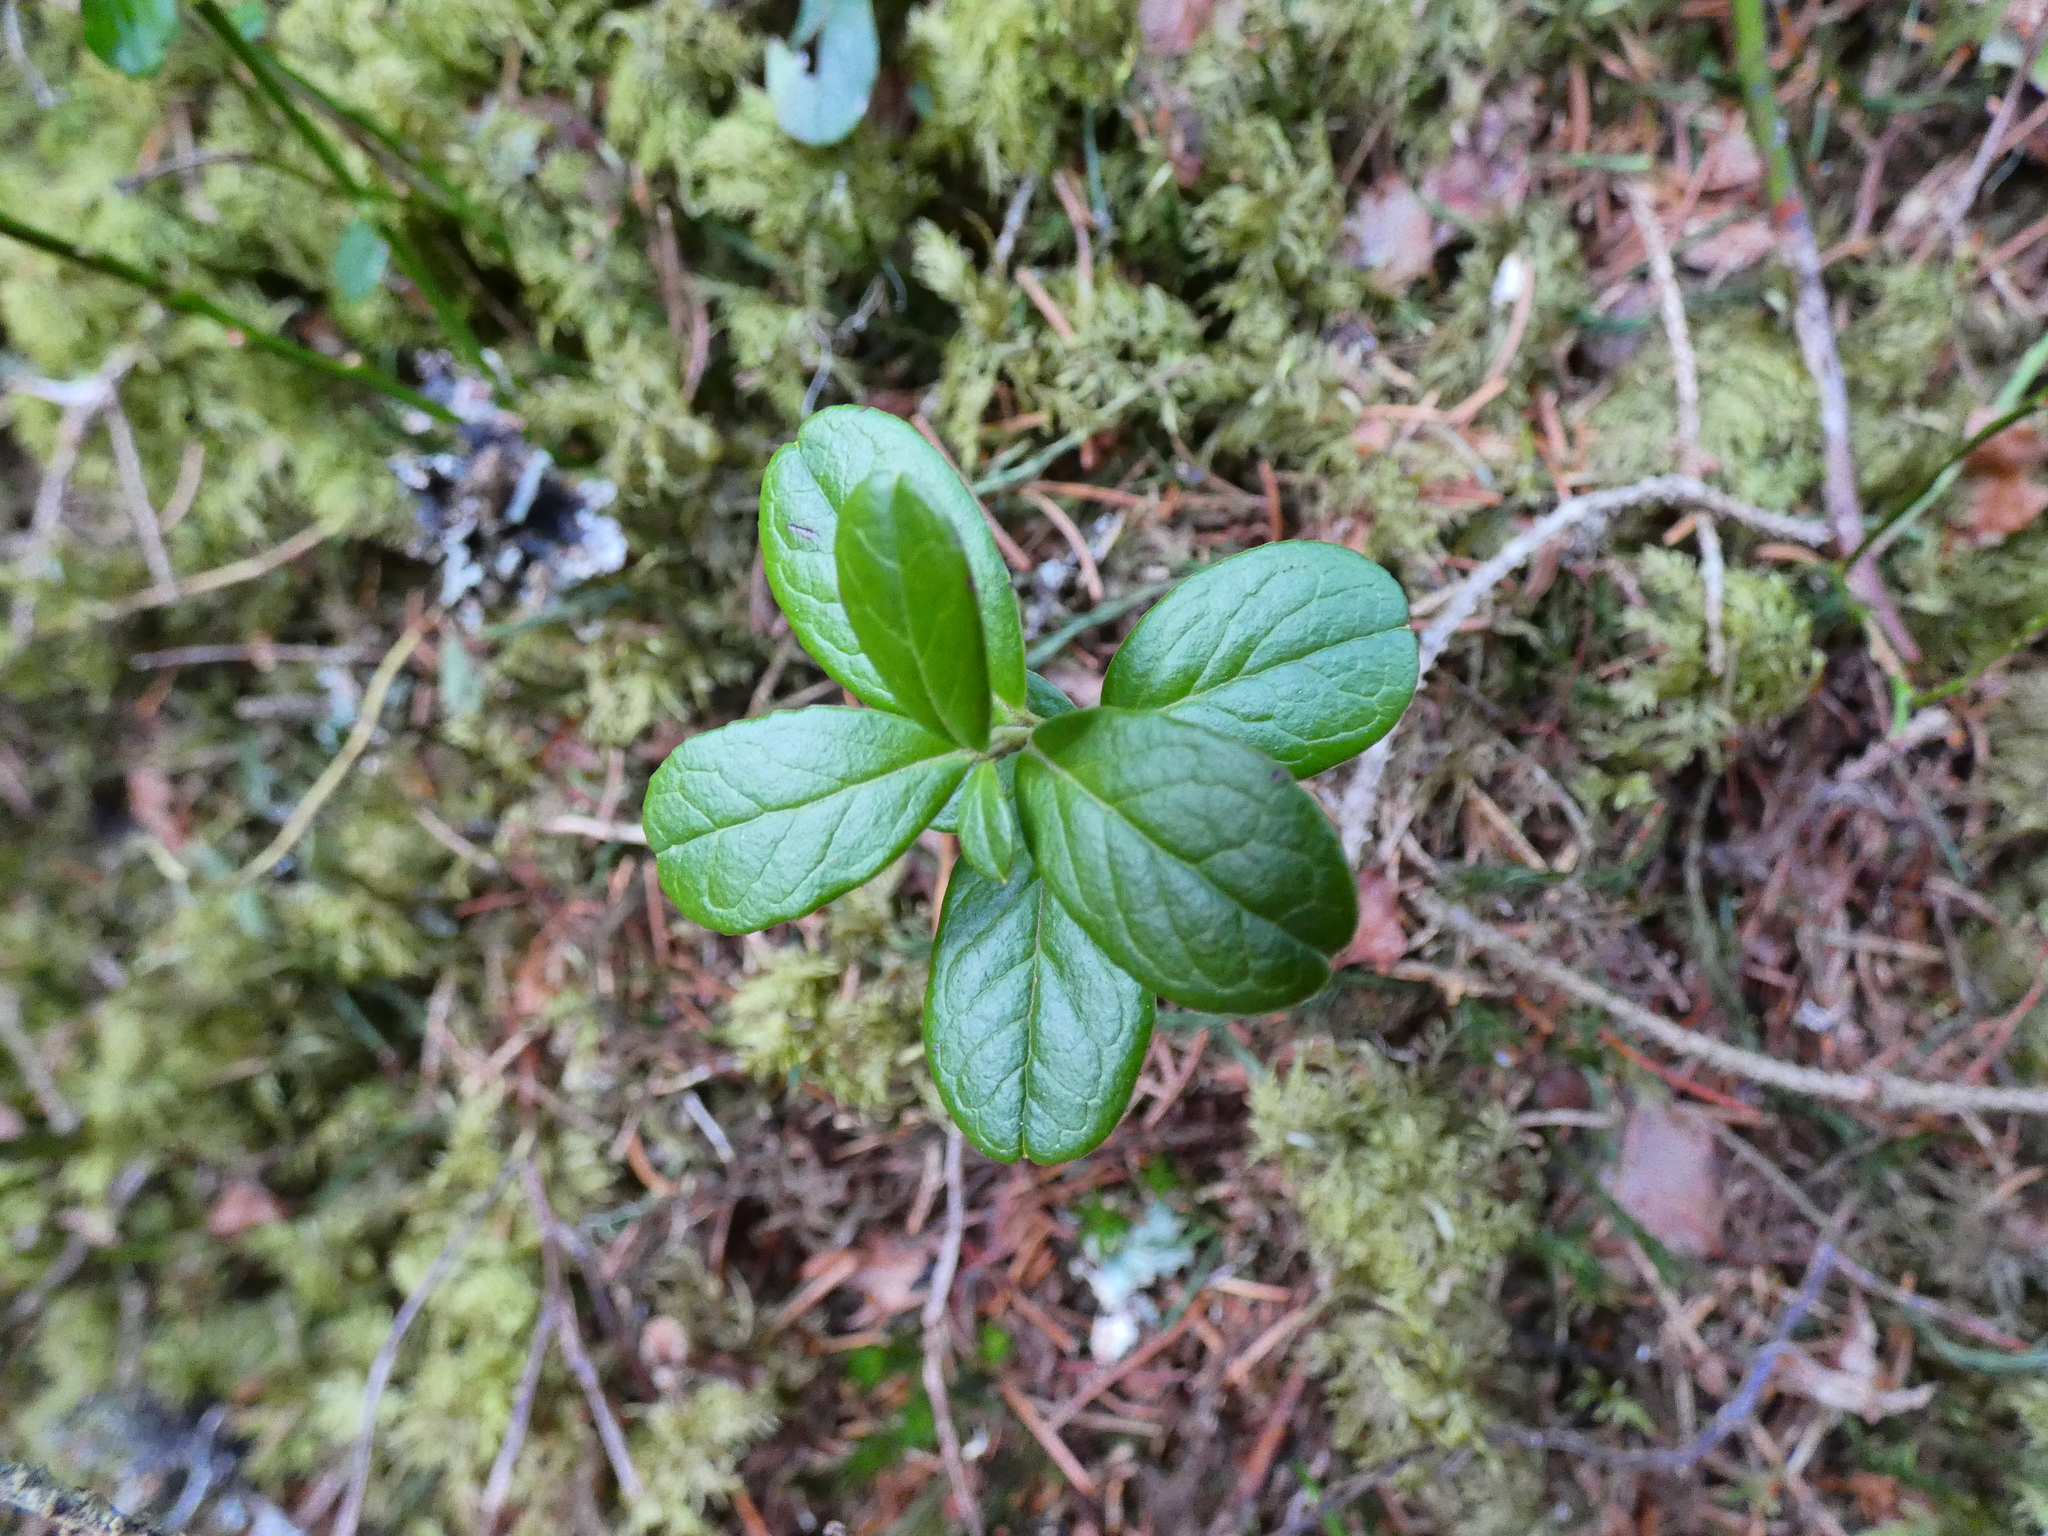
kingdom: Plantae
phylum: Tracheophyta
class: Magnoliopsida
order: Ericales
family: Ericaceae
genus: Vaccinium
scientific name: Vaccinium vitis-idaea
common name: Cowberry
